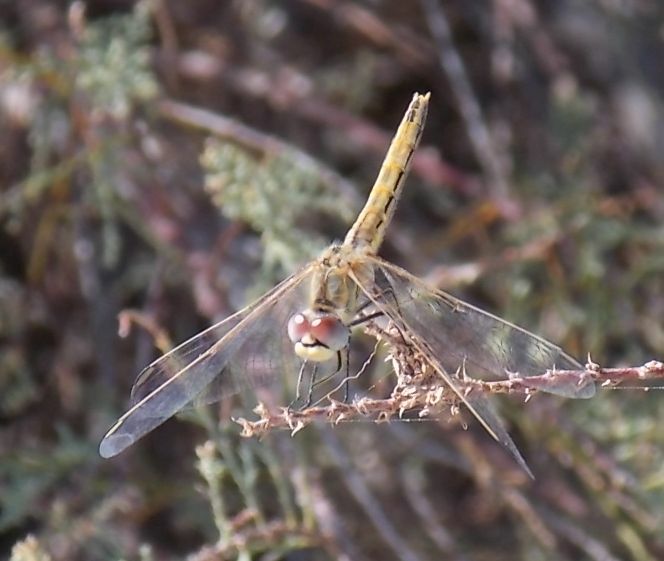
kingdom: Animalia
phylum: Arthropoda
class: Insecta
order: Odonata
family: Libellulidae
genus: Sympetrum
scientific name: Sympetrum fonscolombii
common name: Red-veined darter
